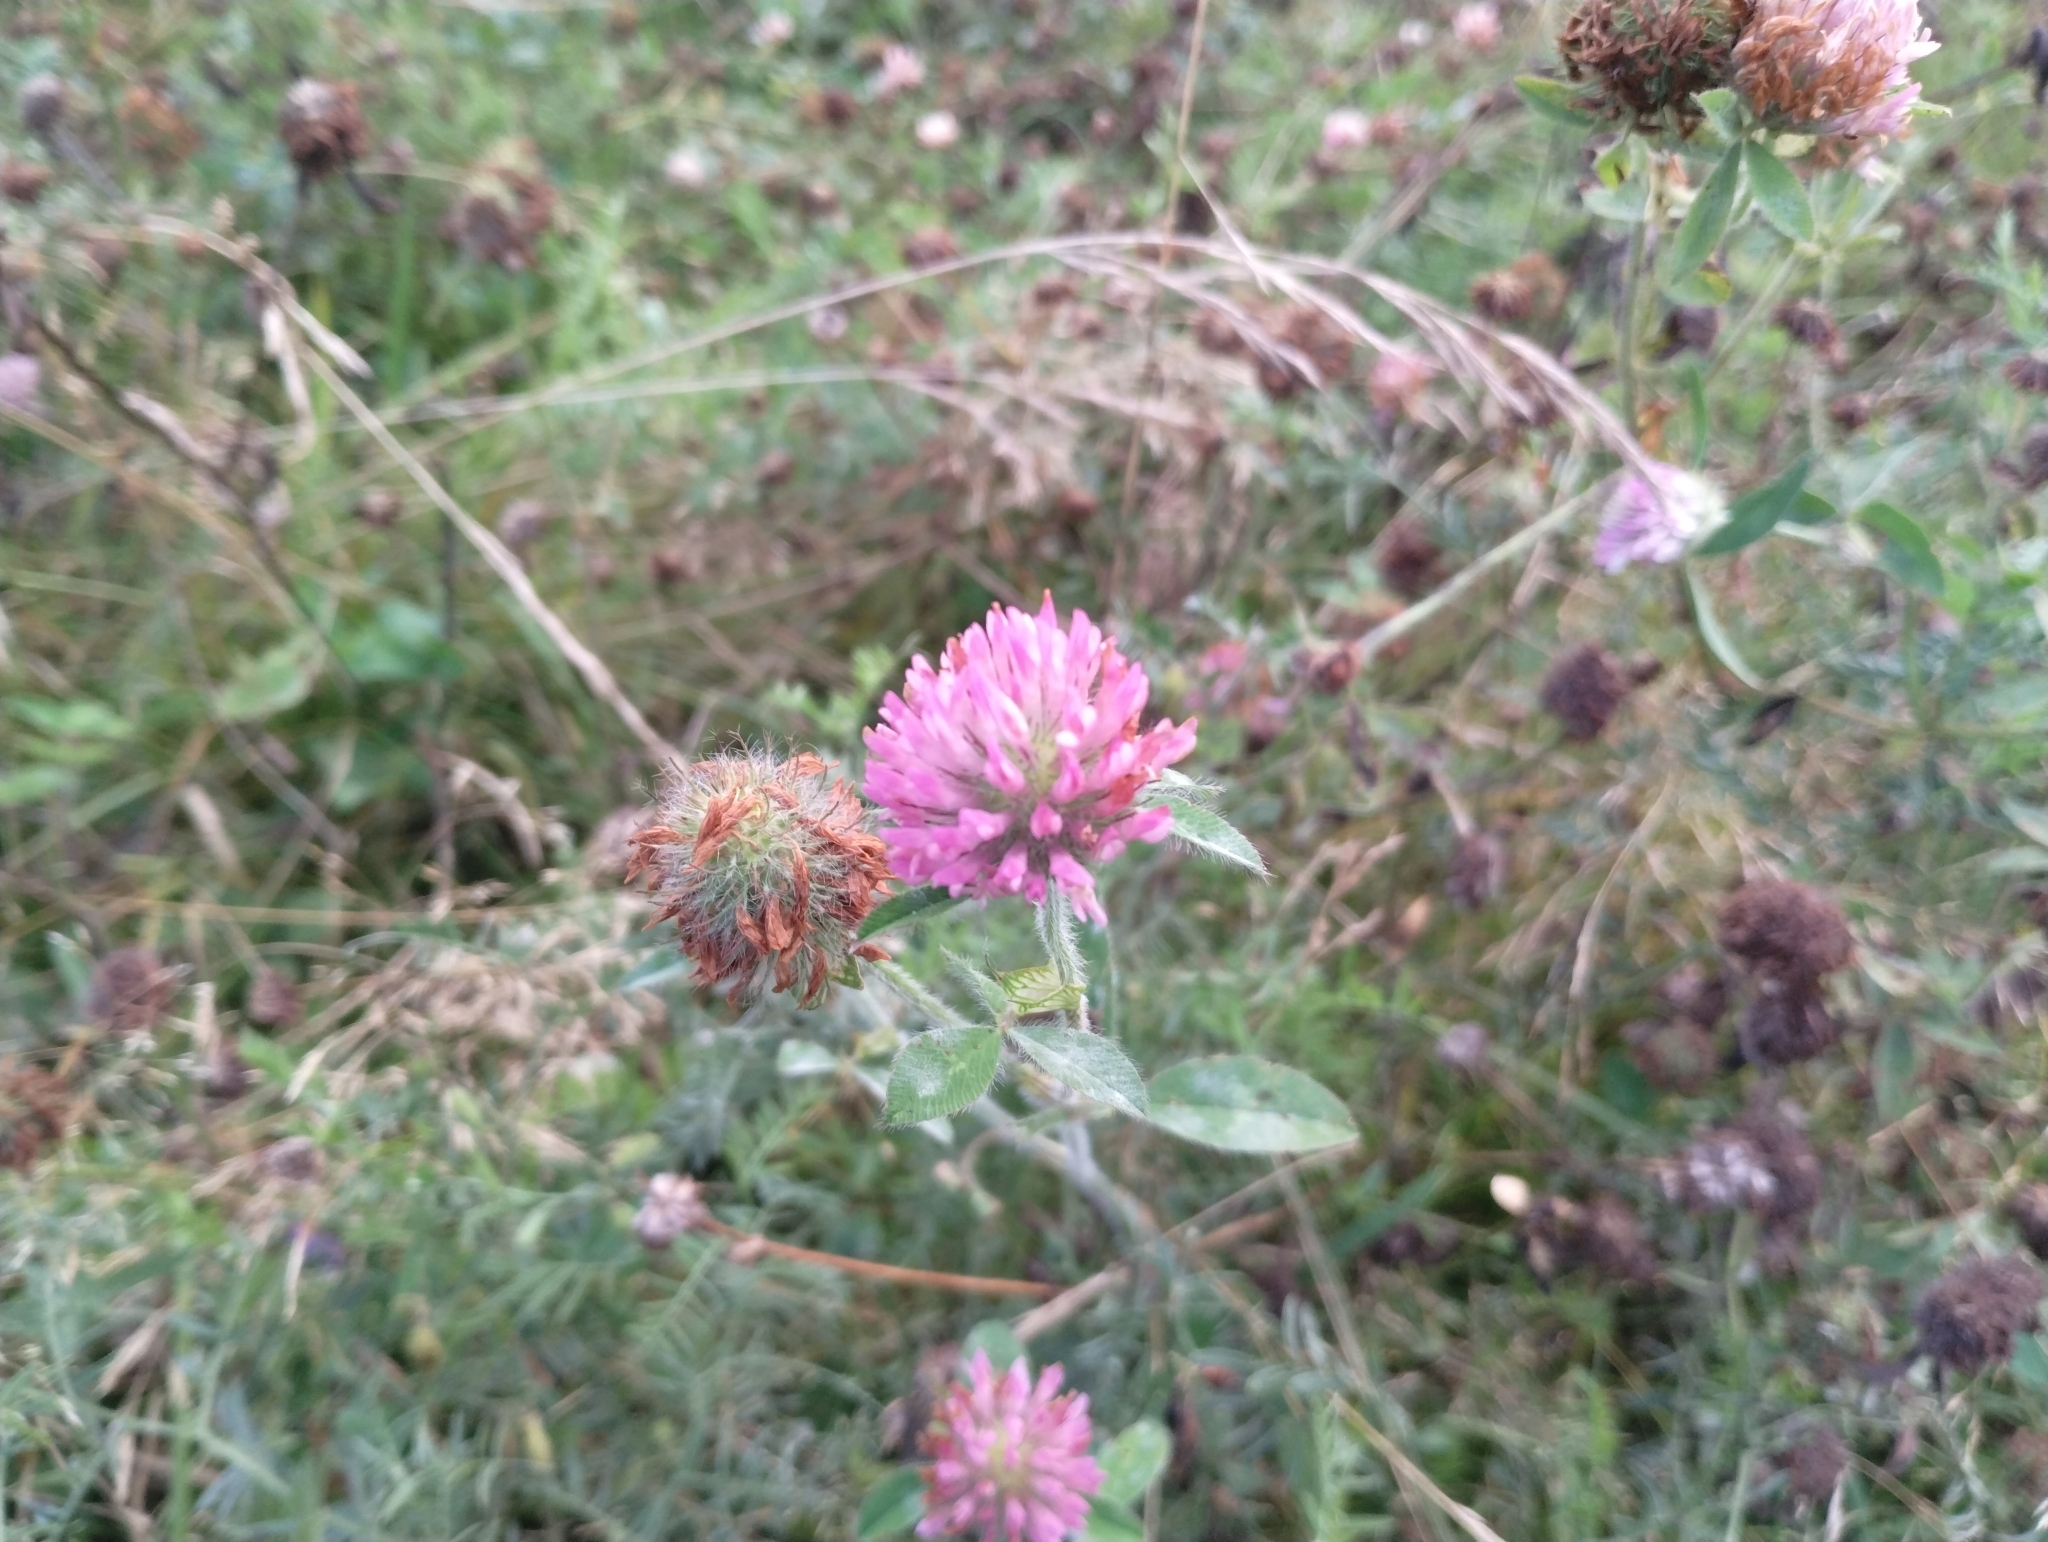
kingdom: Plantae
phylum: Tracheophyta
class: Magnoliopsida
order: Fabales
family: Fabaceae
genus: Trifolium
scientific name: Trifolium pratense
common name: Red clover
